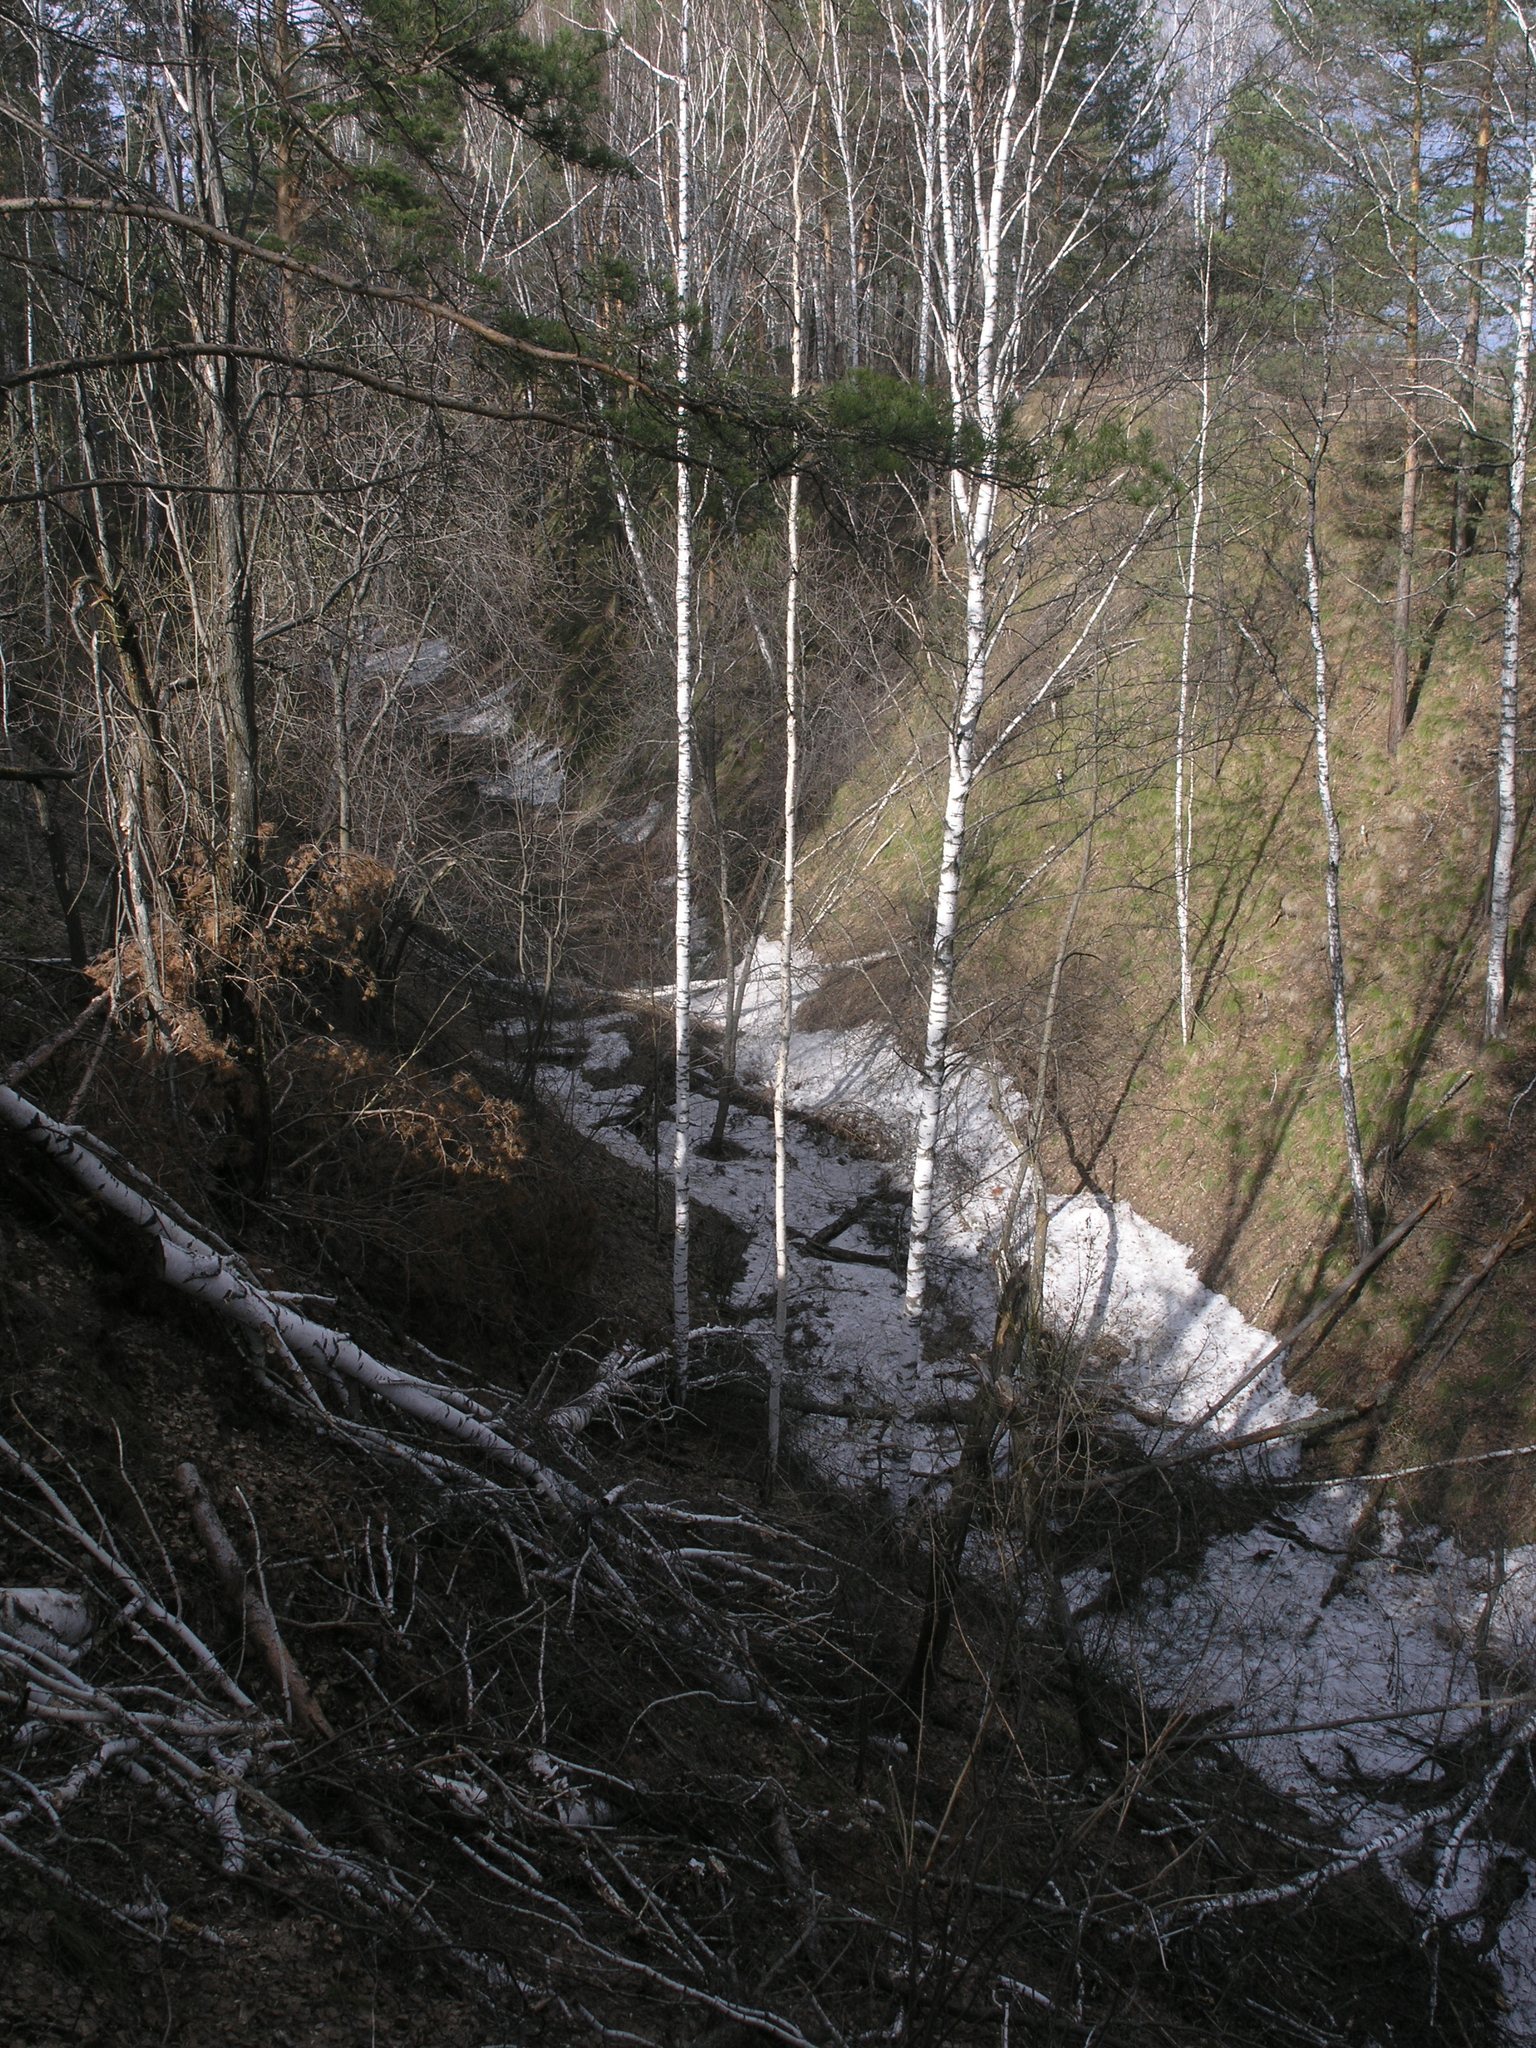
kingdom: Plantae
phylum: Tracheophyta
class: Magnoliopsida
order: Fagales
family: Betulaceae
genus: Betula
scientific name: Betula pendula
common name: Silver birch
